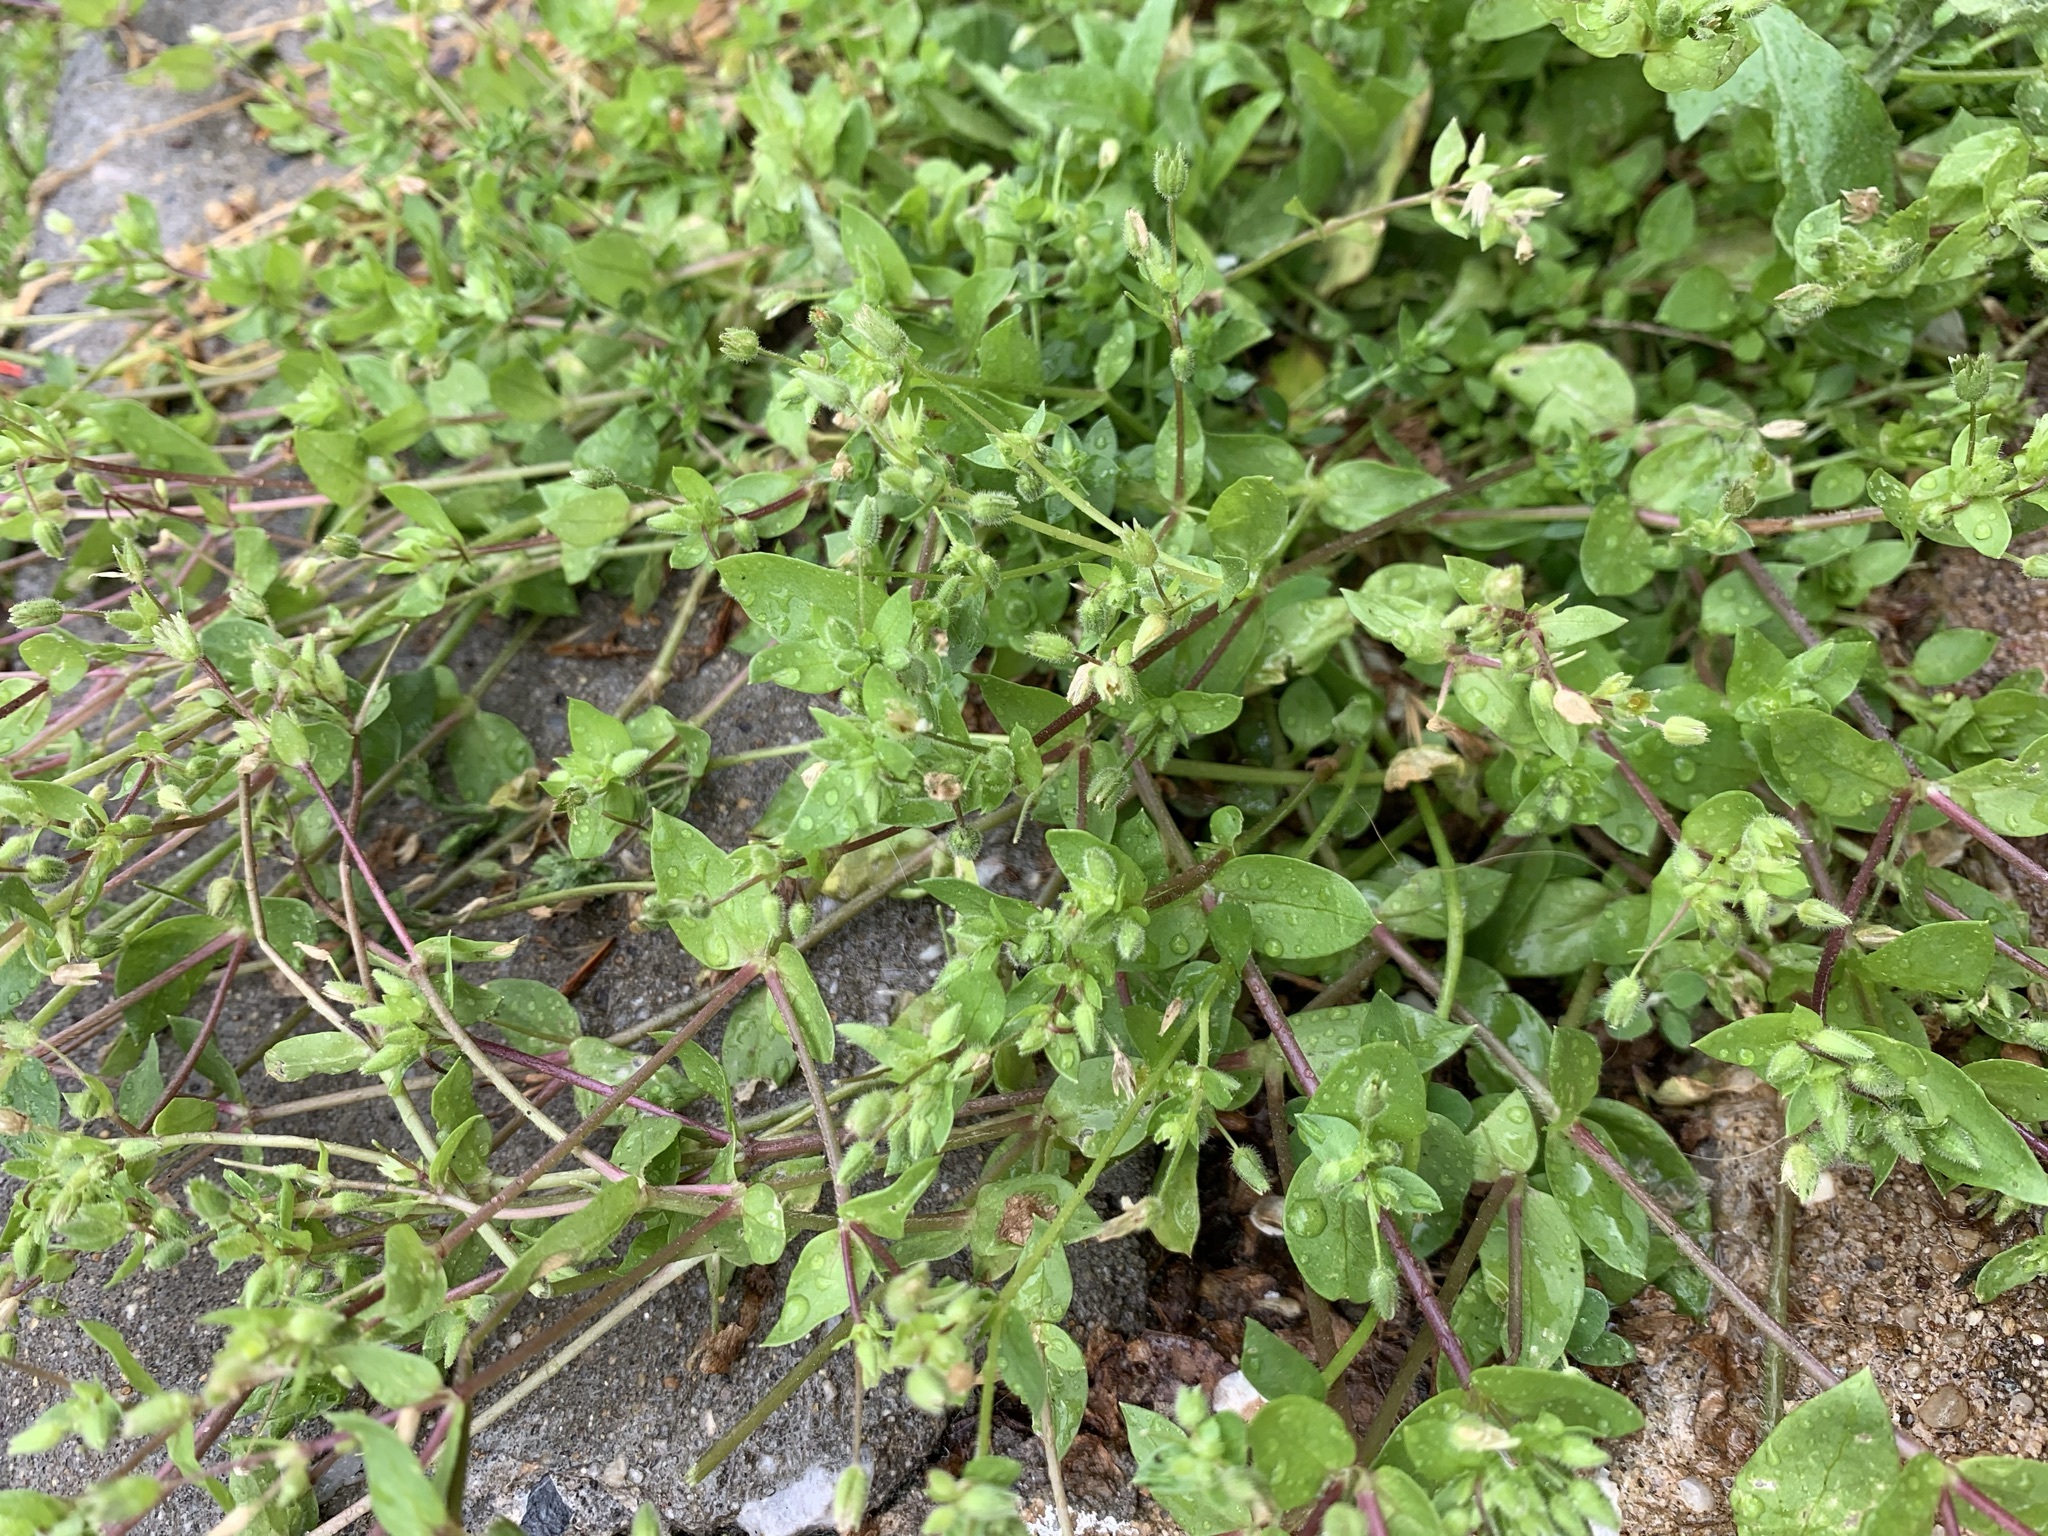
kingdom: Plantae
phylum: Tracheophyta
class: Magnoliopsida
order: Caryophyllales
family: Caryophyllaceae
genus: Stellaria
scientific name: Stellaria media
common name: Common chickweed
